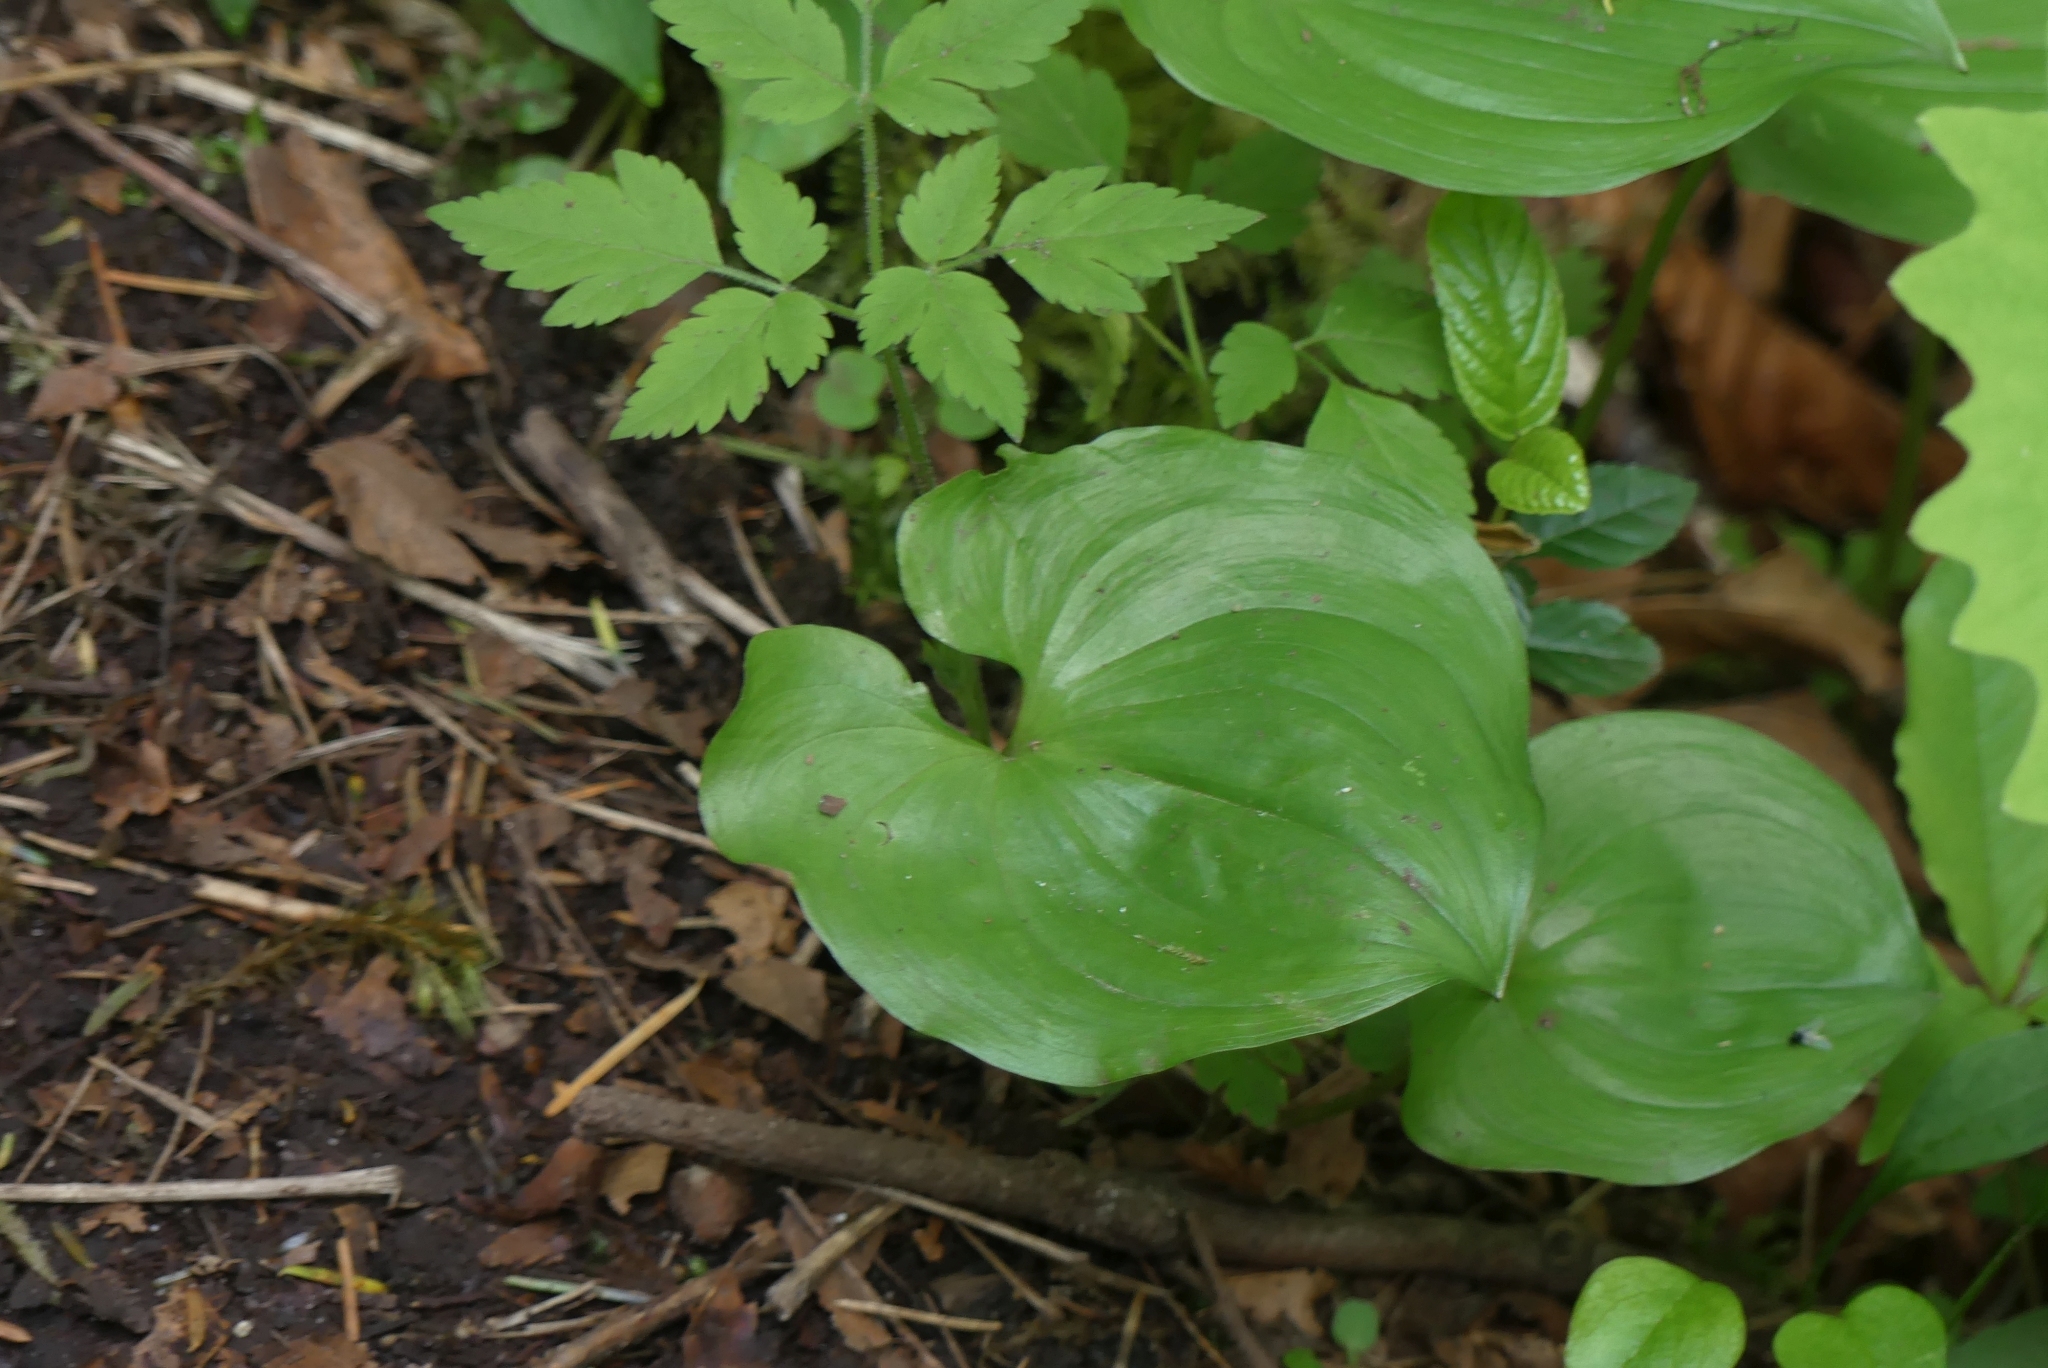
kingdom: Plantae
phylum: Tracheophyta
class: Liliopsida
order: Asparagales
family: Asparagaceae
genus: Maianthemum
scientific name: Maianthemum dilatatum
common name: False lily-of-the-valley
